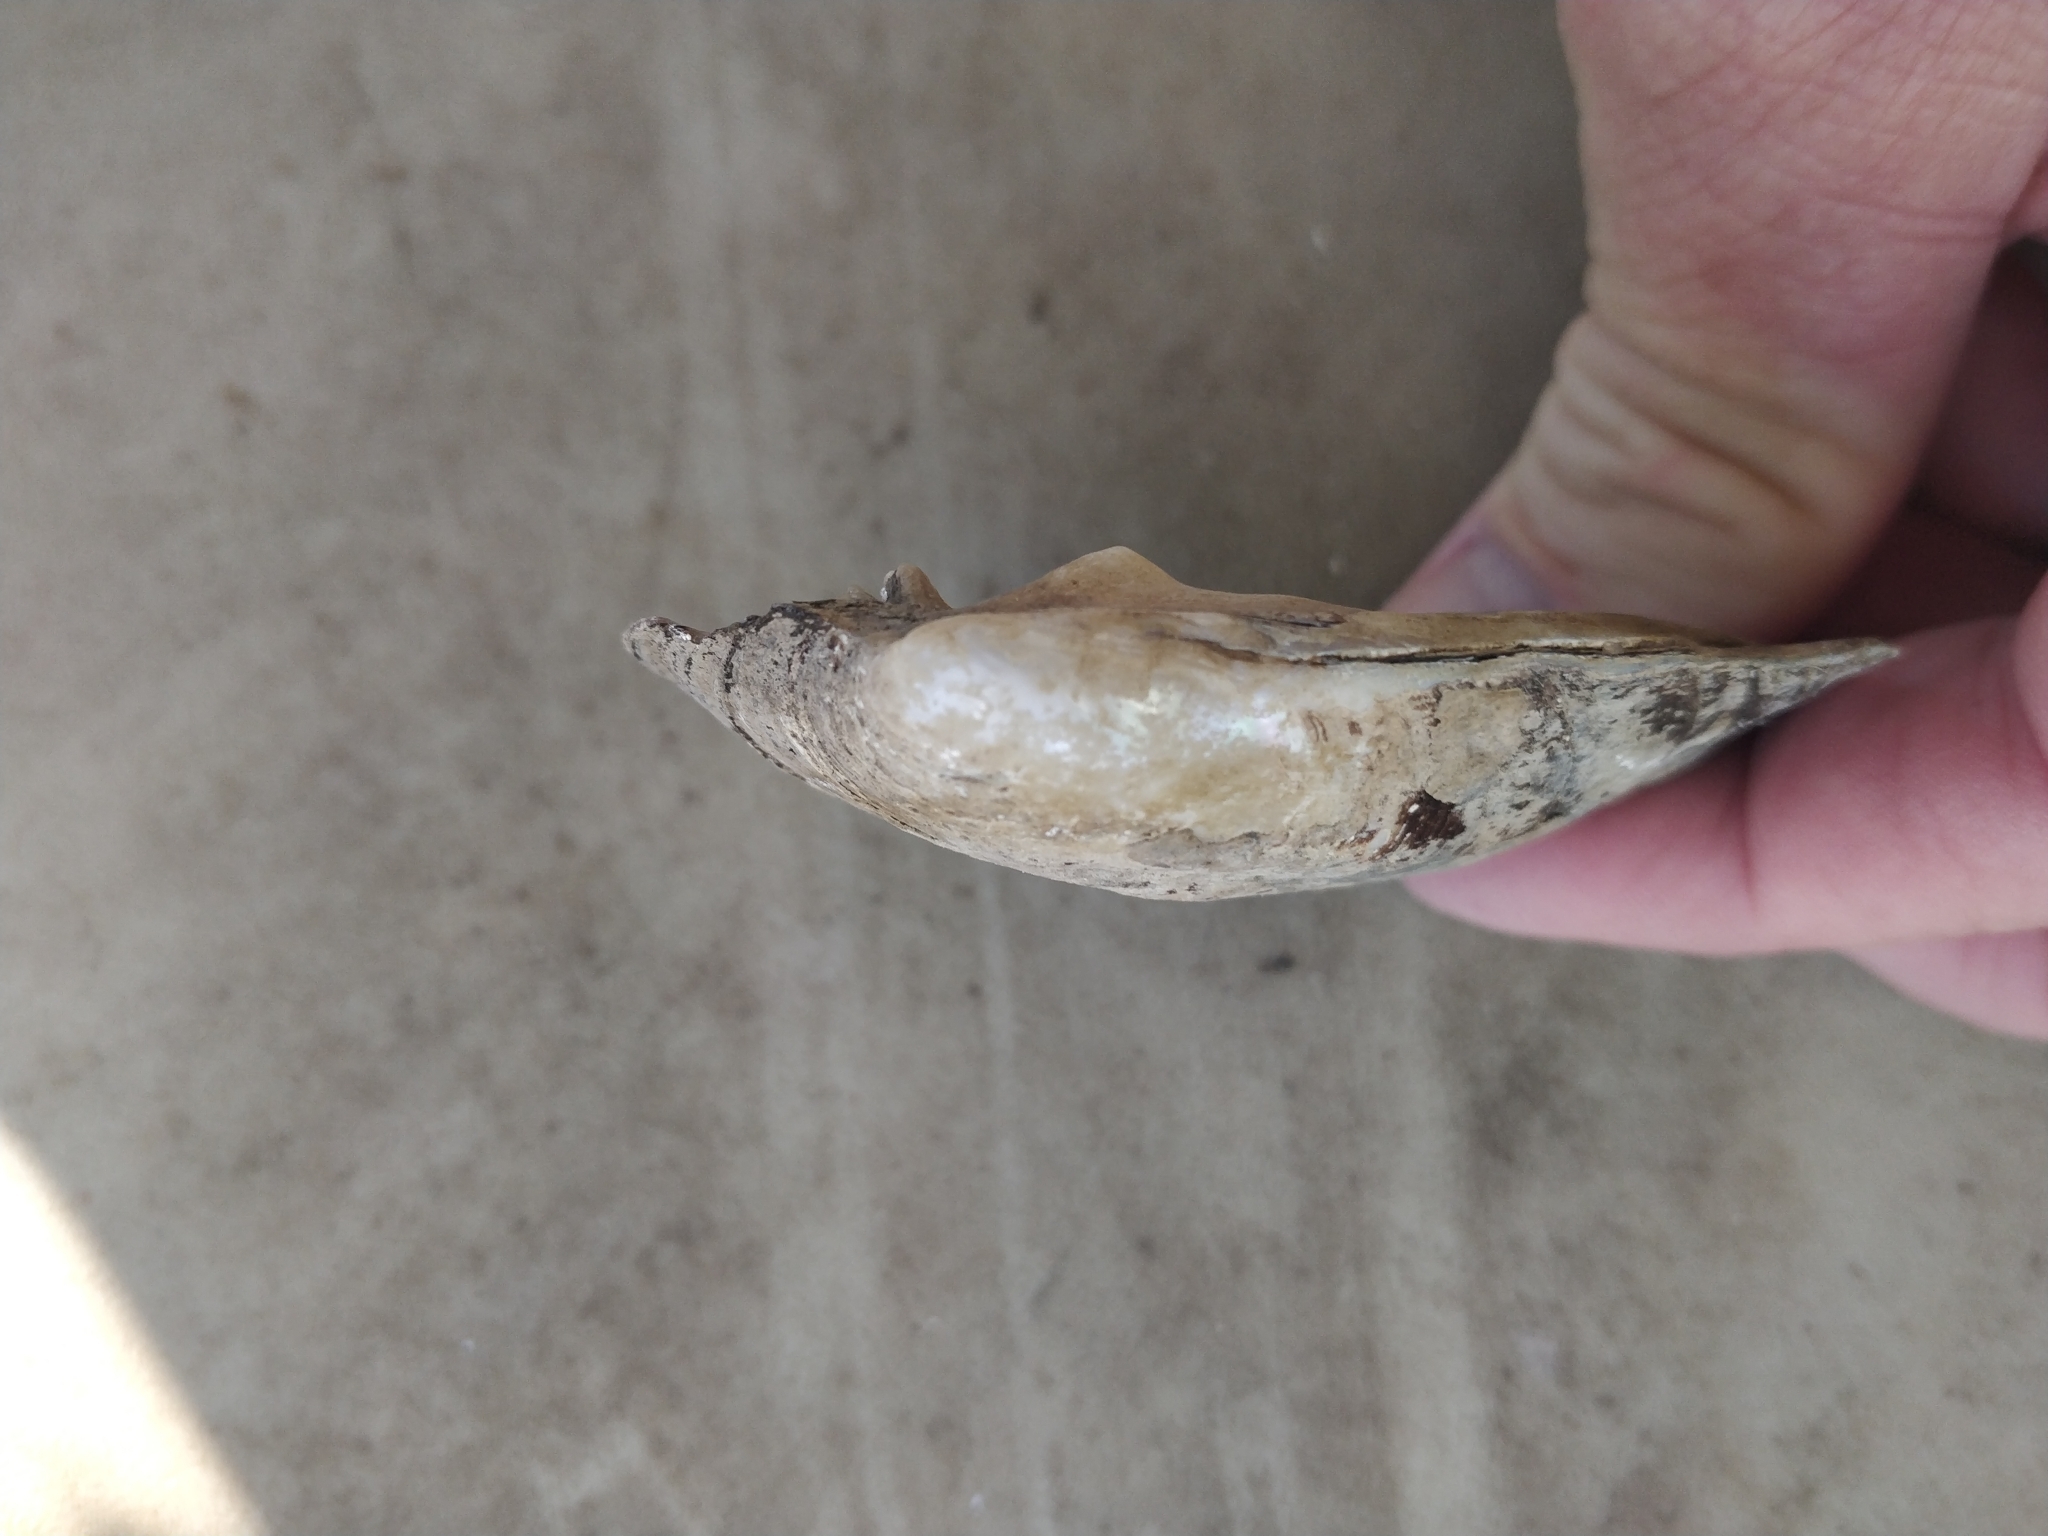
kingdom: Animalia
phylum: Mollusca
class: Bivalvia
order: Unionida
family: Unionidae
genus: Amblema
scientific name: Amblema plicata
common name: Threeridge
